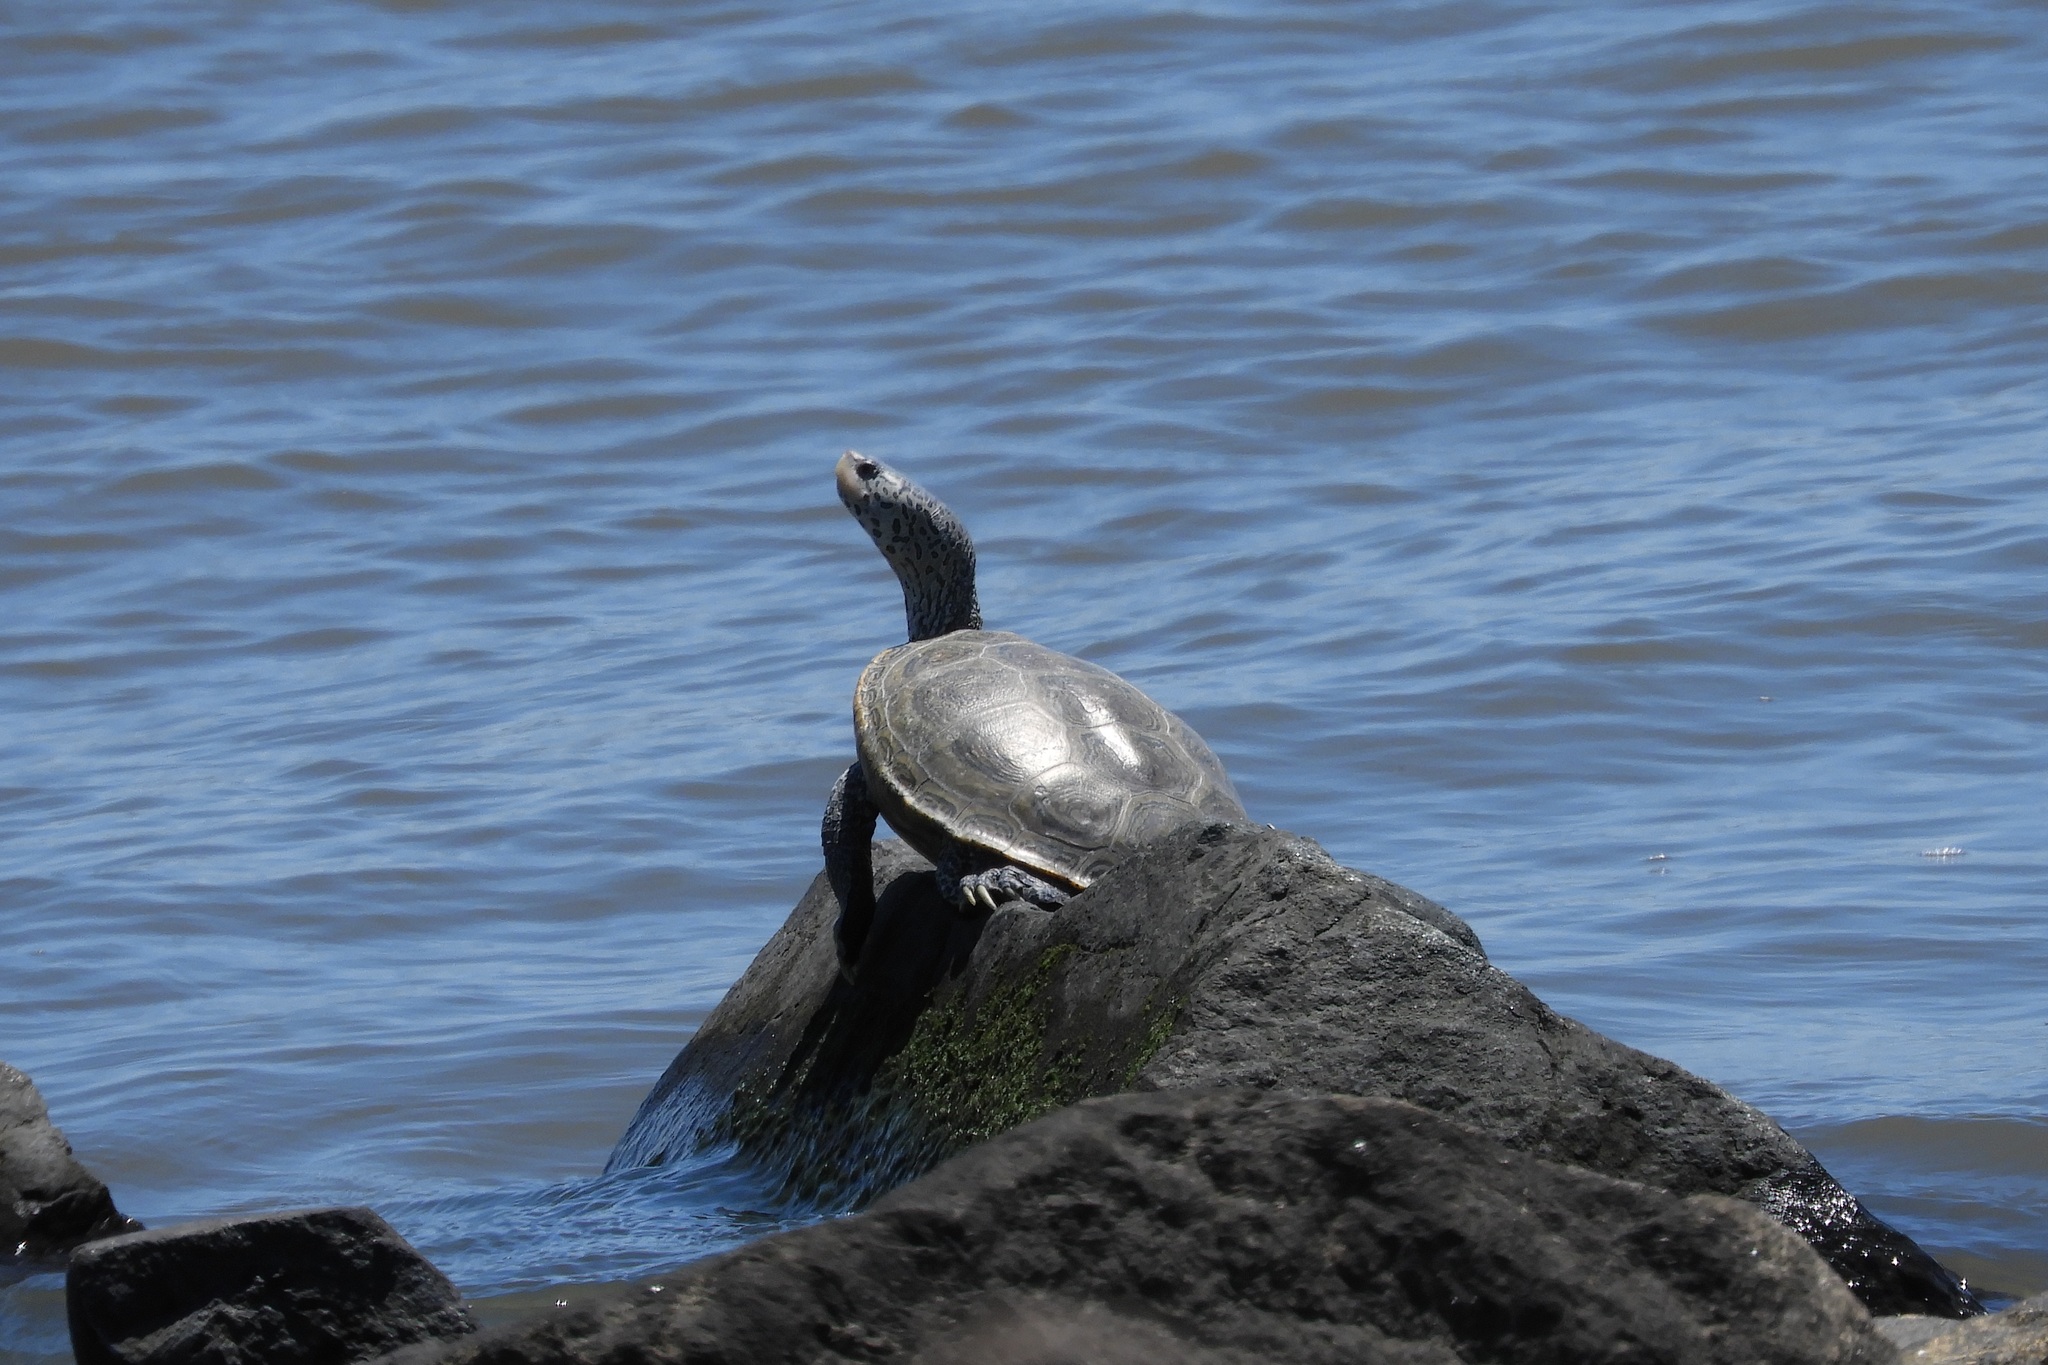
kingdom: Animalia
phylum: Chordata
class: Testudines
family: Emydidae
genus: Malaclemys
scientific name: Malaclemys terrapin
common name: Diamondback terrapin
